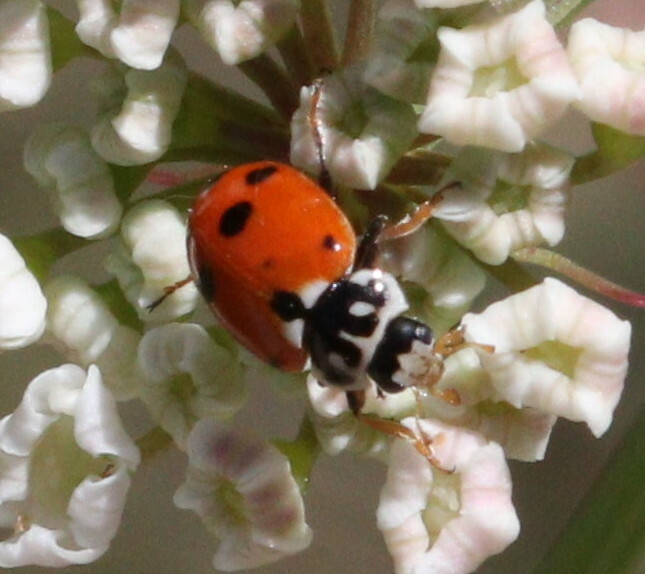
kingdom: Animalia
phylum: Arthropoda
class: Insecta
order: Coleoptera
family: Coccinellidae
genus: Hippodamia
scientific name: Hippodamia variegata
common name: Ladybird beetle
